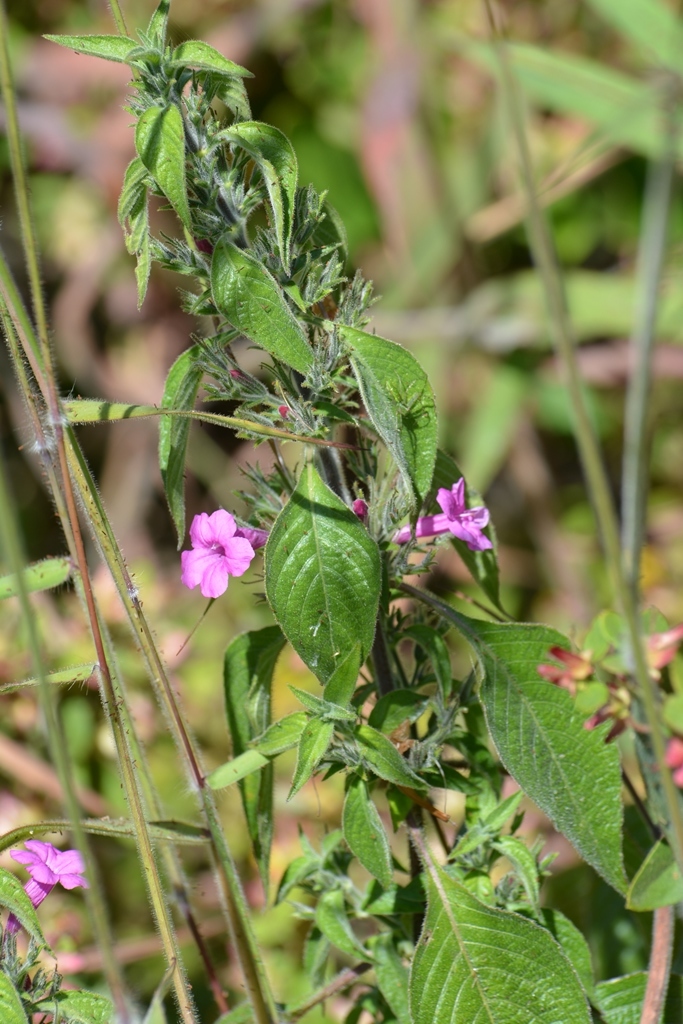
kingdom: Plantae
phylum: Tracheophyta
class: Magnoliopsida
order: Lamiales
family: Acanthaceae
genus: Ruellia
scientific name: Ruellia inundata
